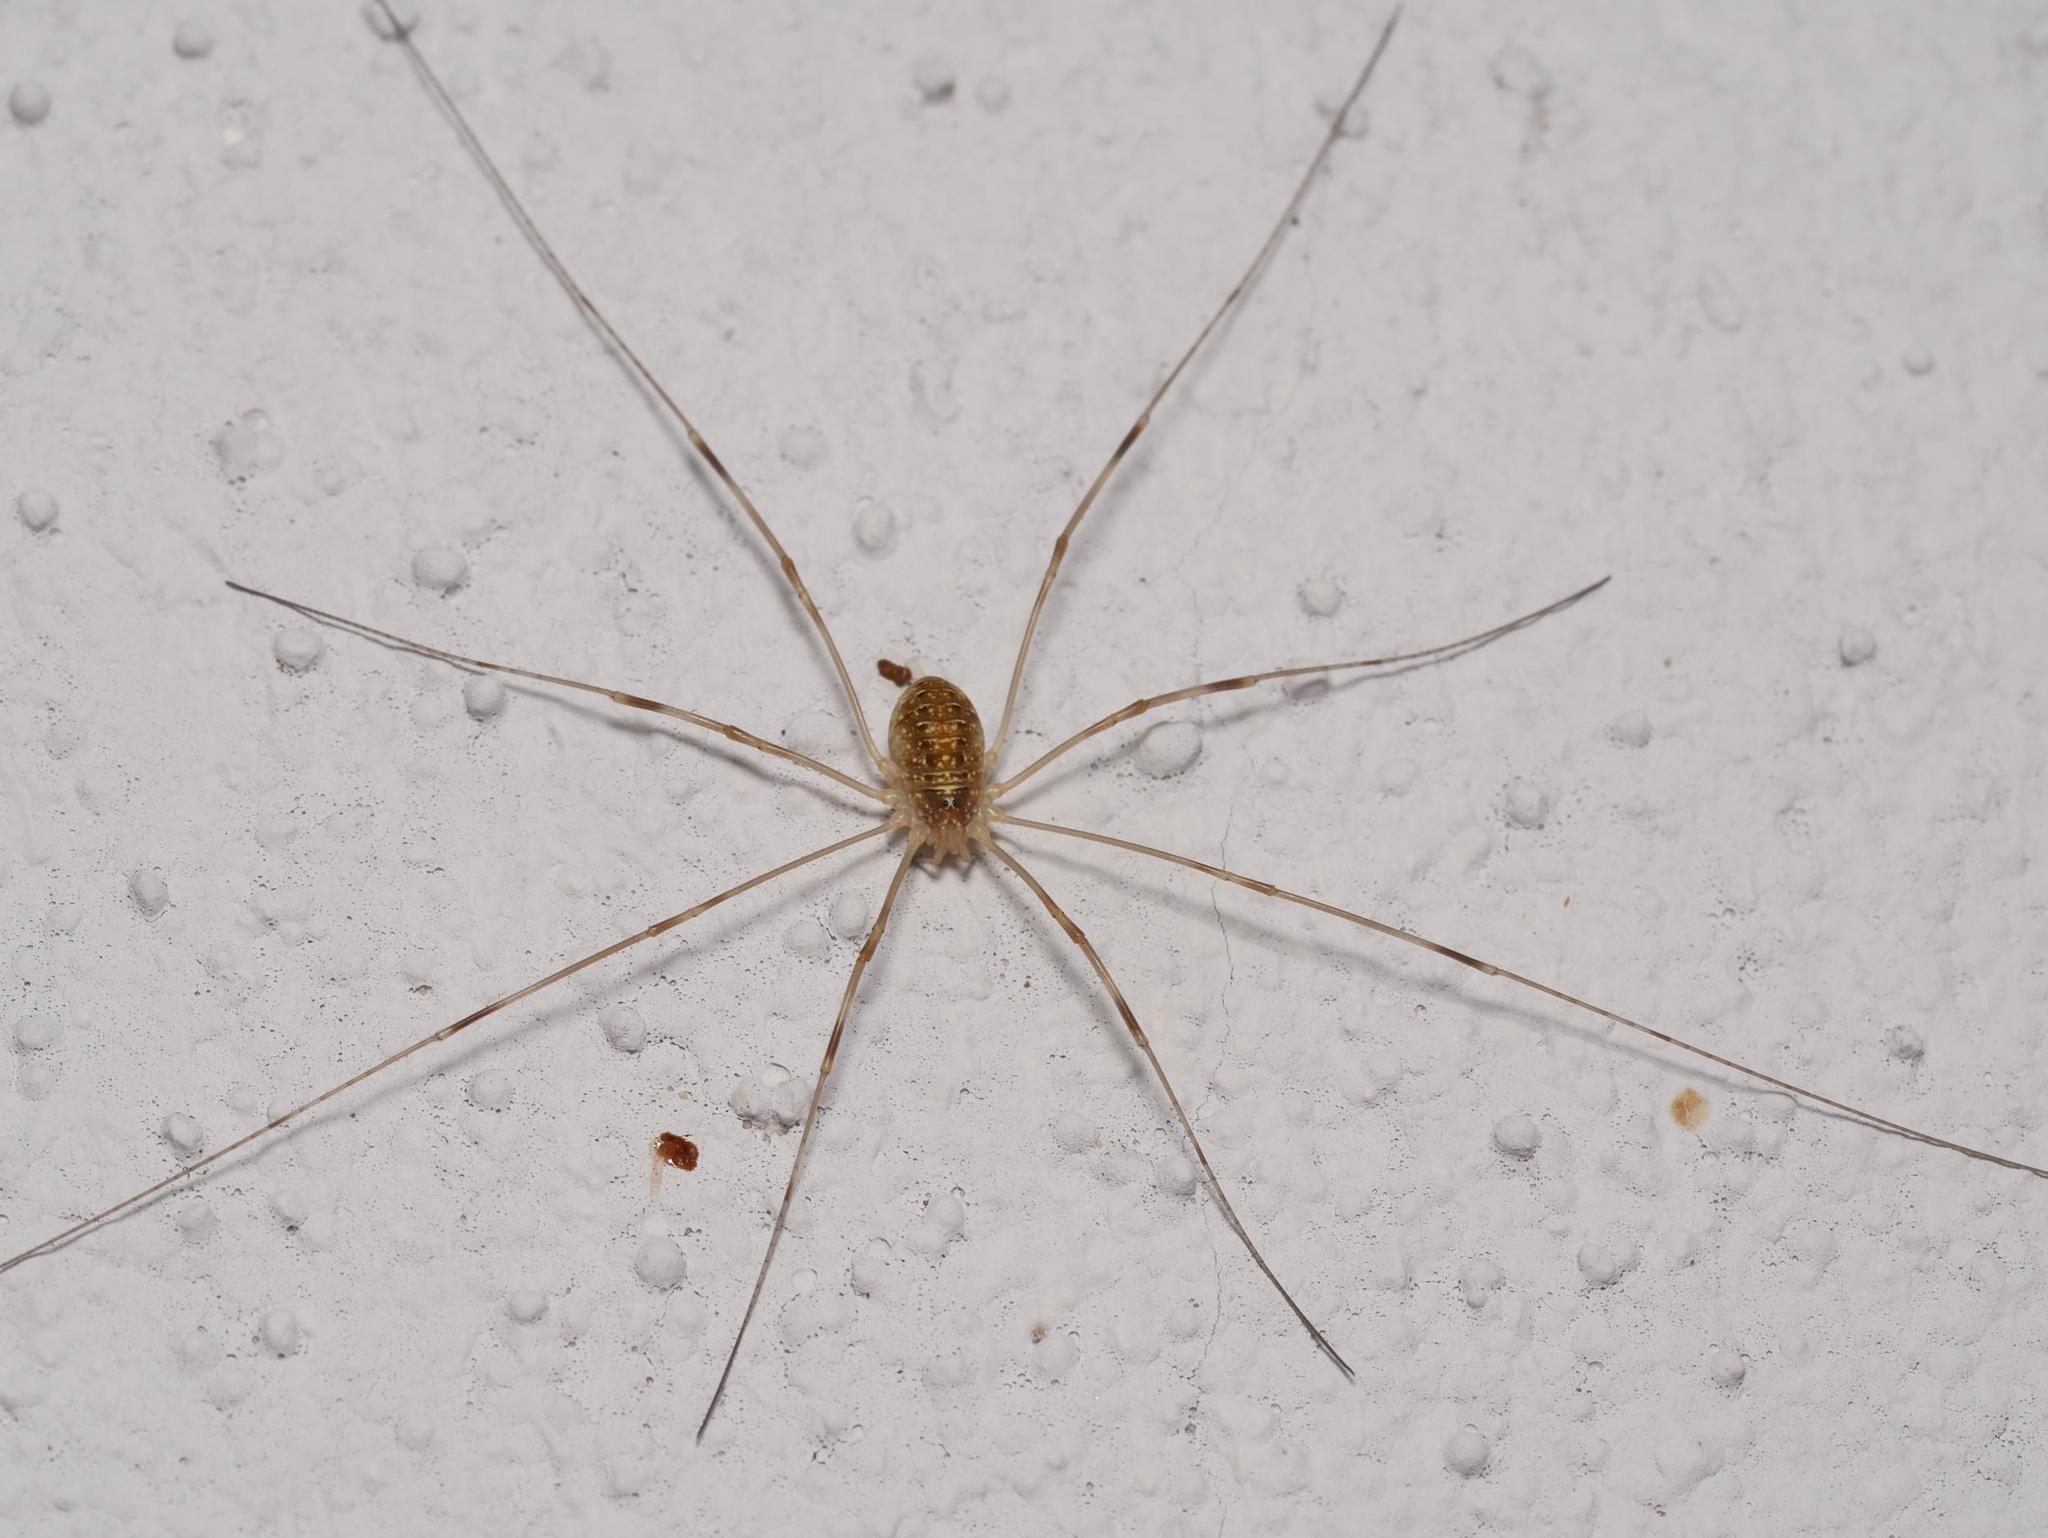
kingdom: Animalia
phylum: Arthropoda
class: Arachnida
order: Opiliones
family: Phalangiidae
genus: Opilio
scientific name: Opilio canestrinii
